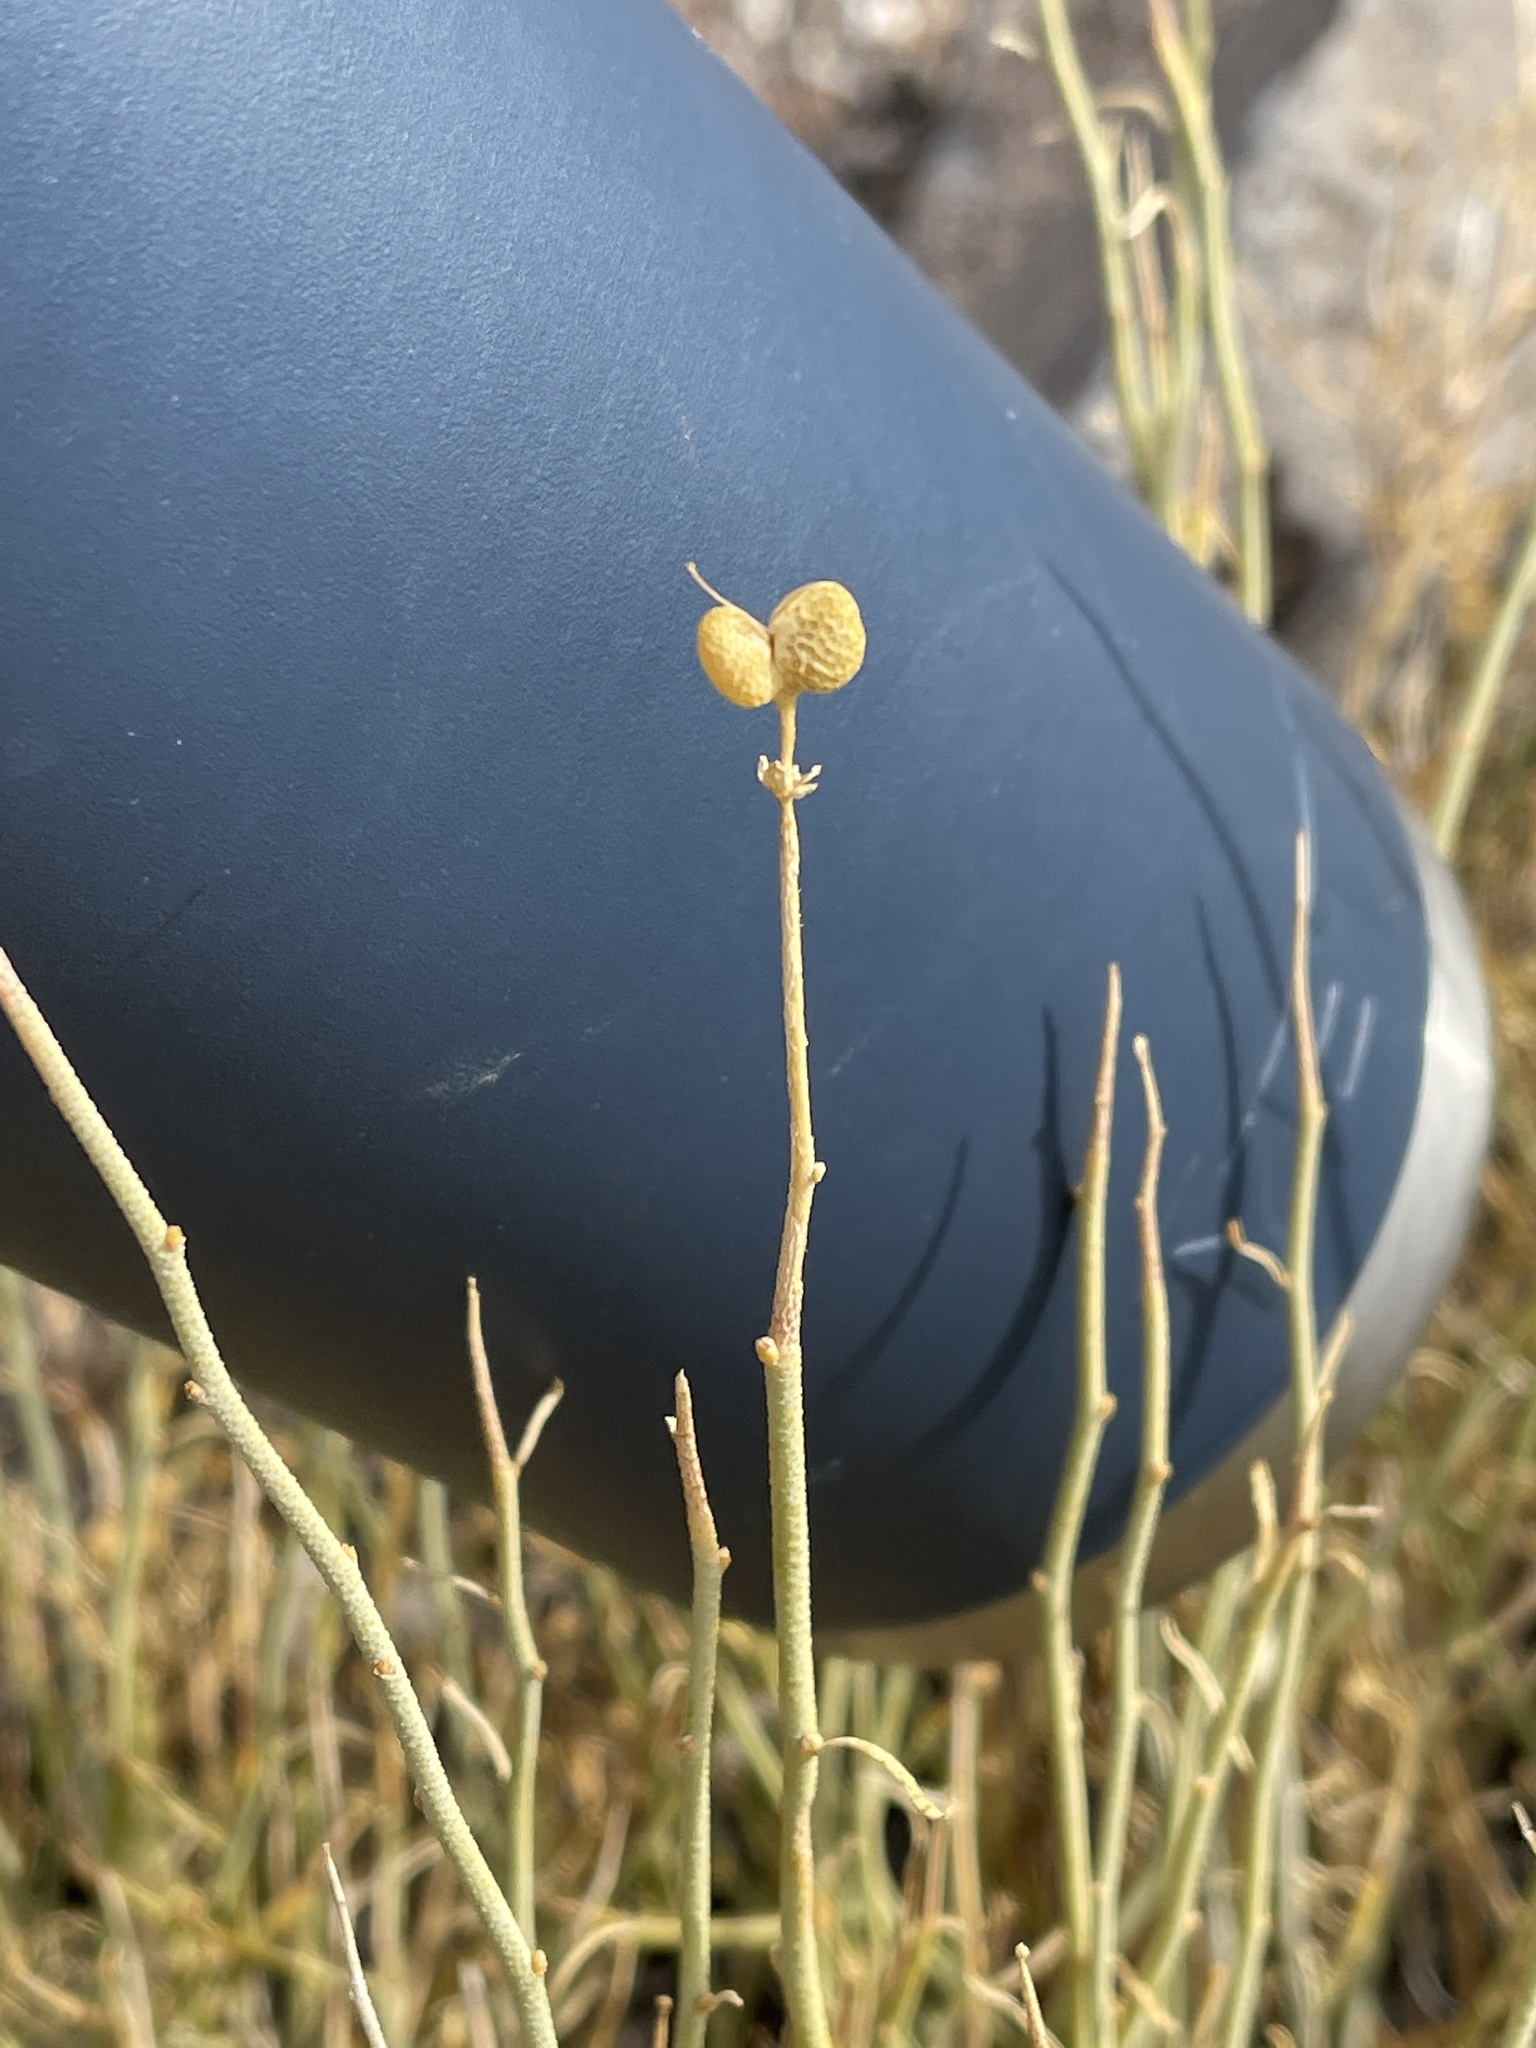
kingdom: Plantae
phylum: Tracheophyta
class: Magnoliopsida
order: Sapindales
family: Rutaceae
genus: Thamnosma
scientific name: Thamnosma montana
